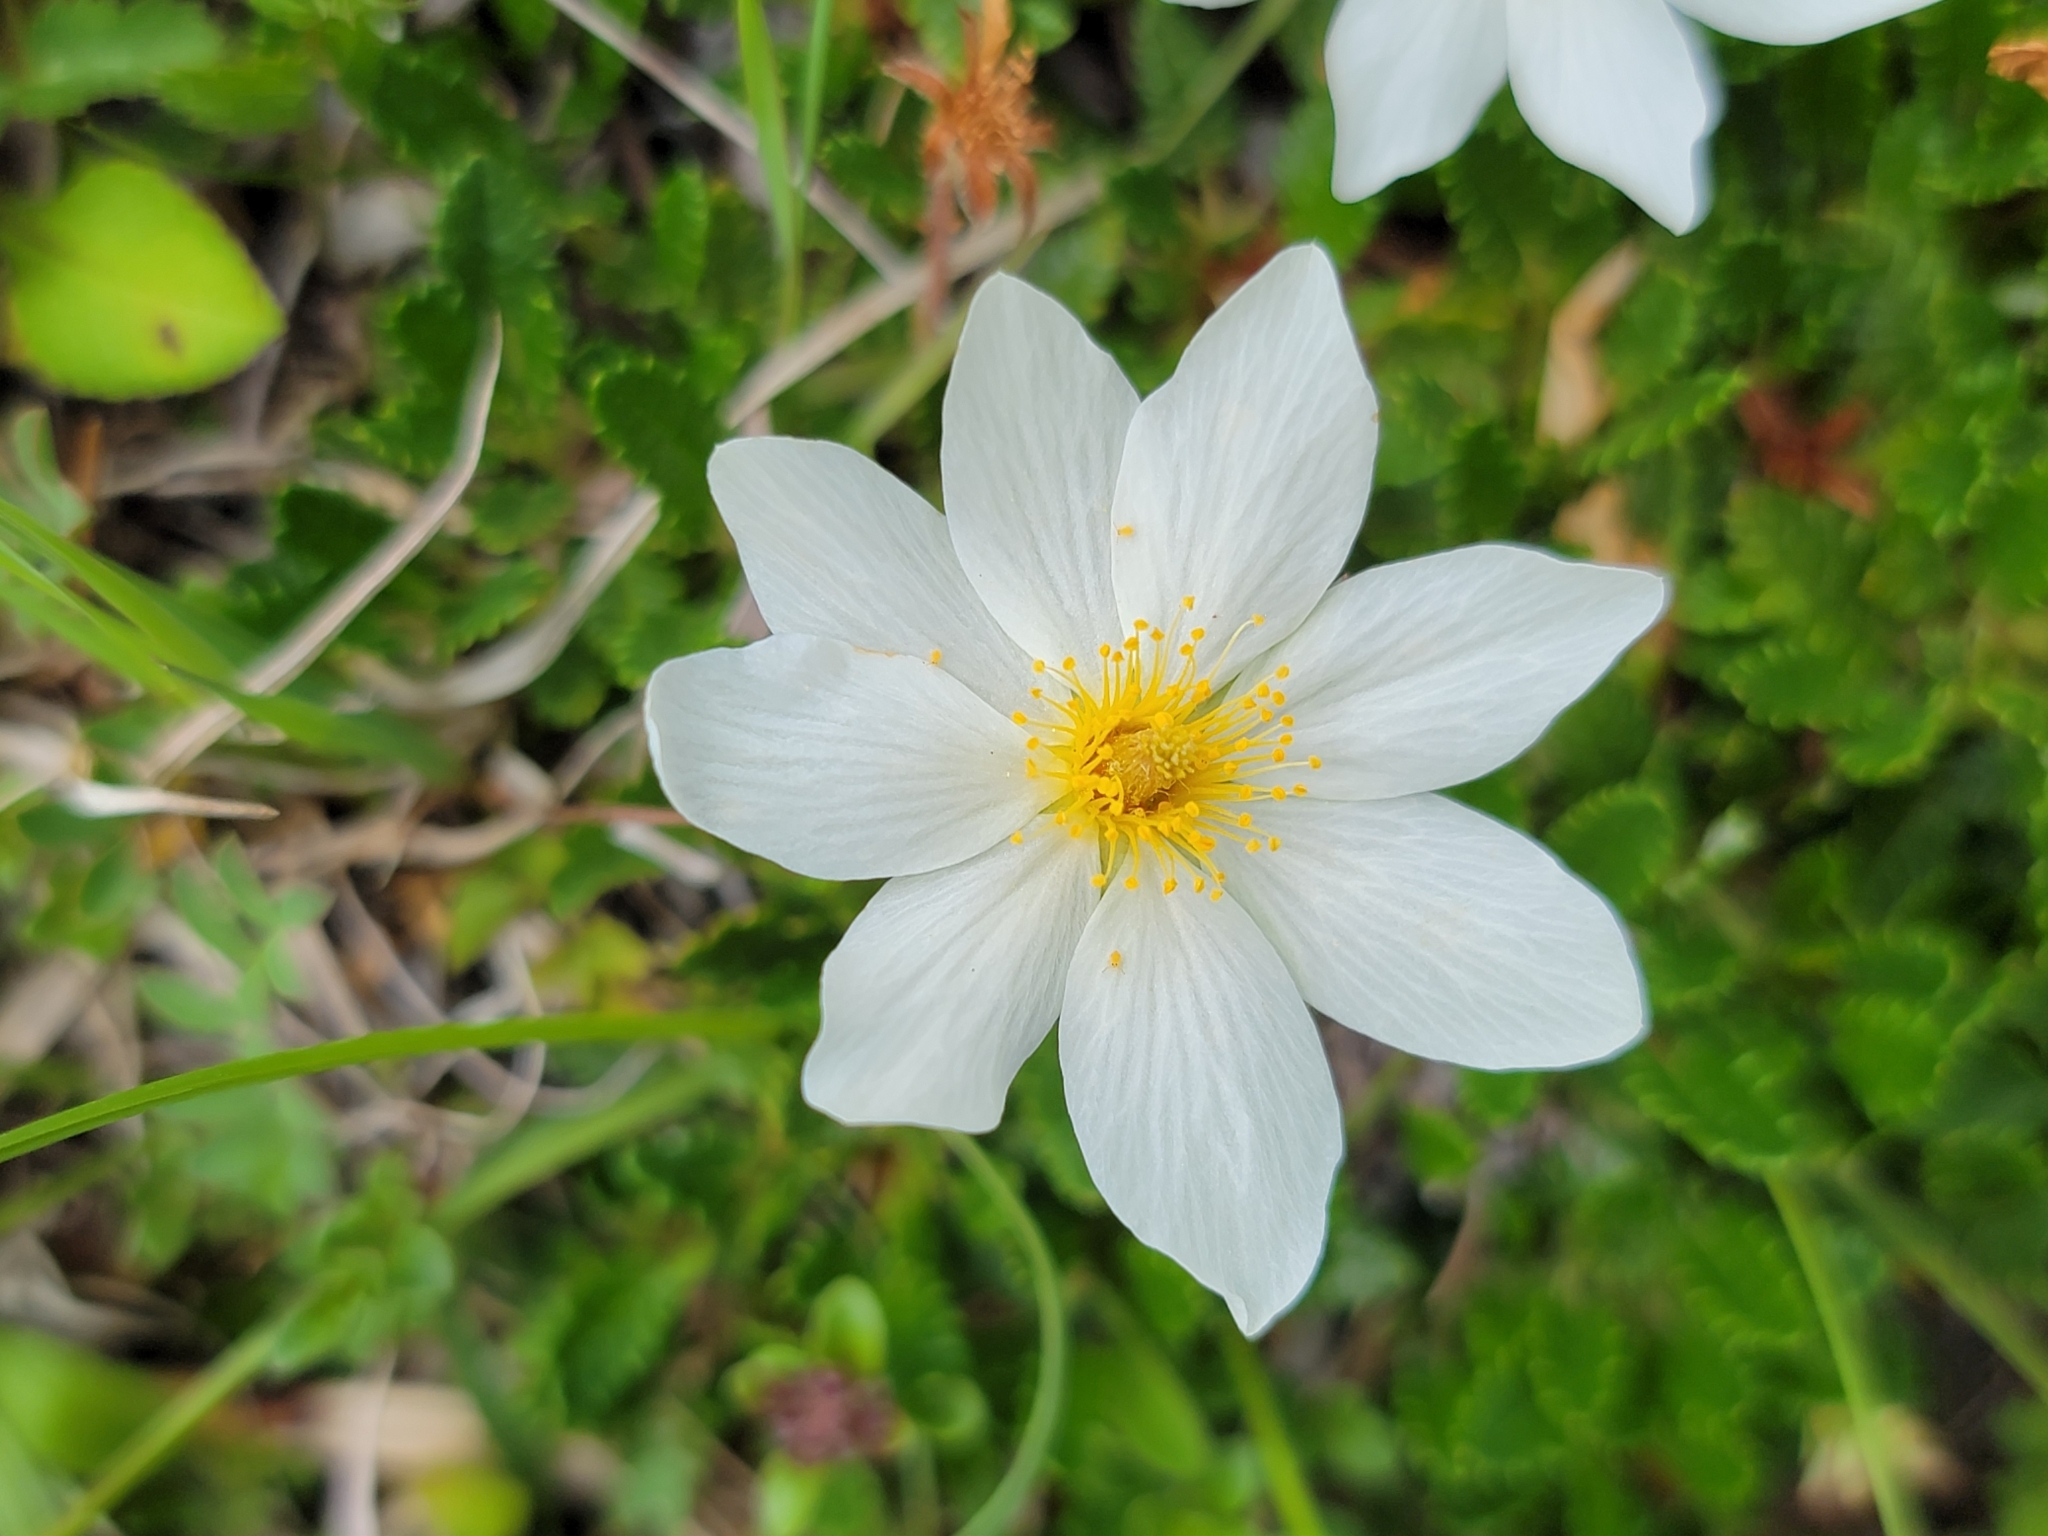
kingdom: Plantae
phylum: Tracheophyta
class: Magnoliopsida
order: Rosales
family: Rosaceae
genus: Dryas
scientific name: Dryas octopetala
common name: Eight-petal mountain-avens
